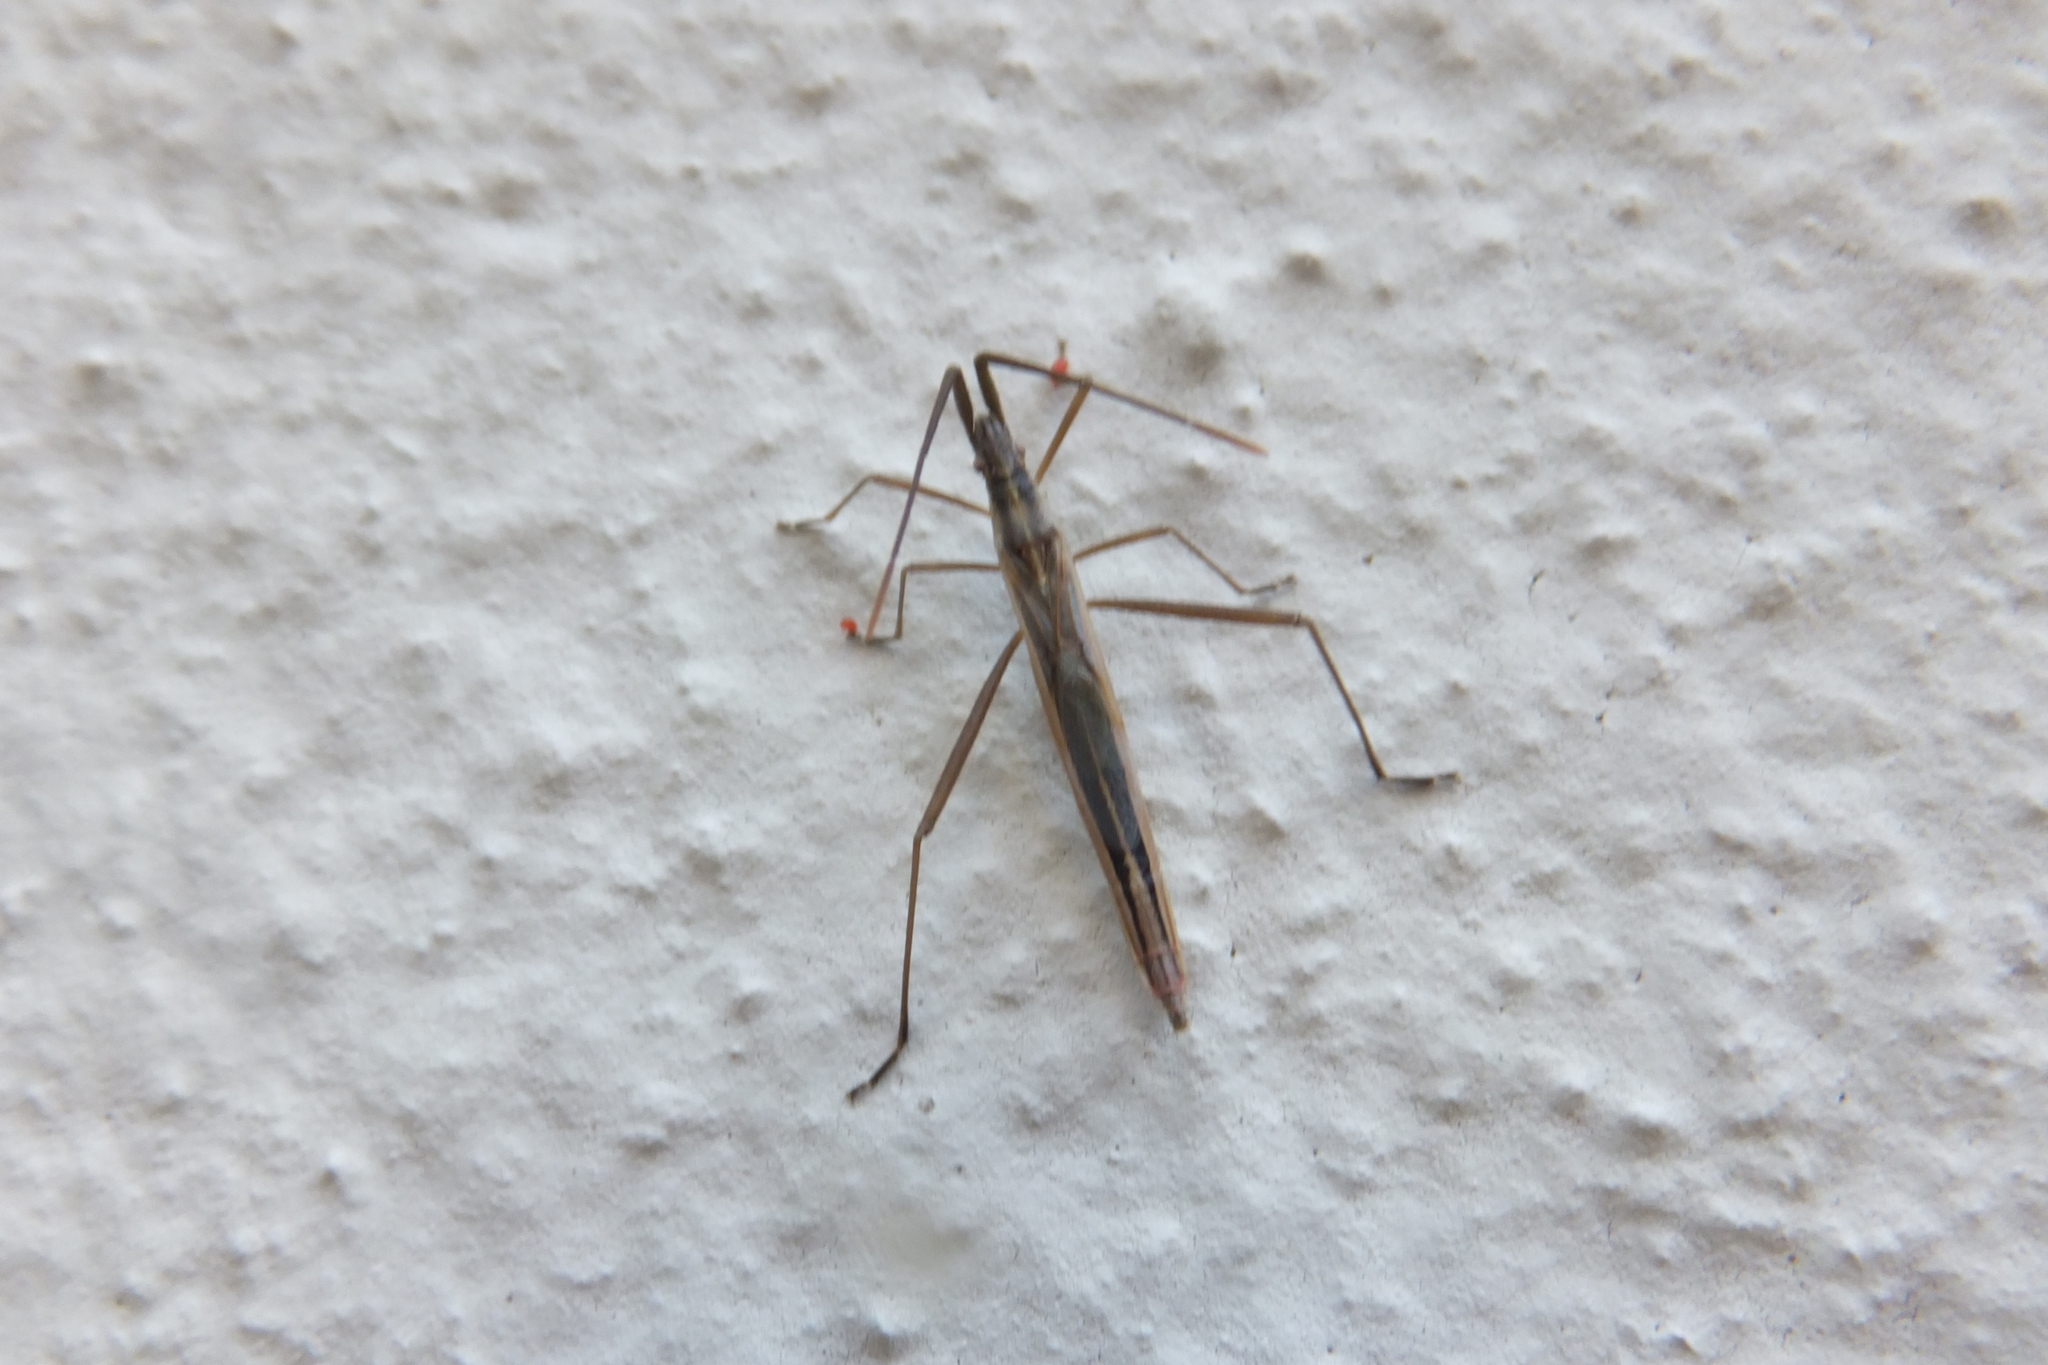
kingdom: Animalia
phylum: Arthropoda
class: Insecta
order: Hemiptera
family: Rhopalidae
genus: Chorosoma
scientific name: Chorosoma schillingii
